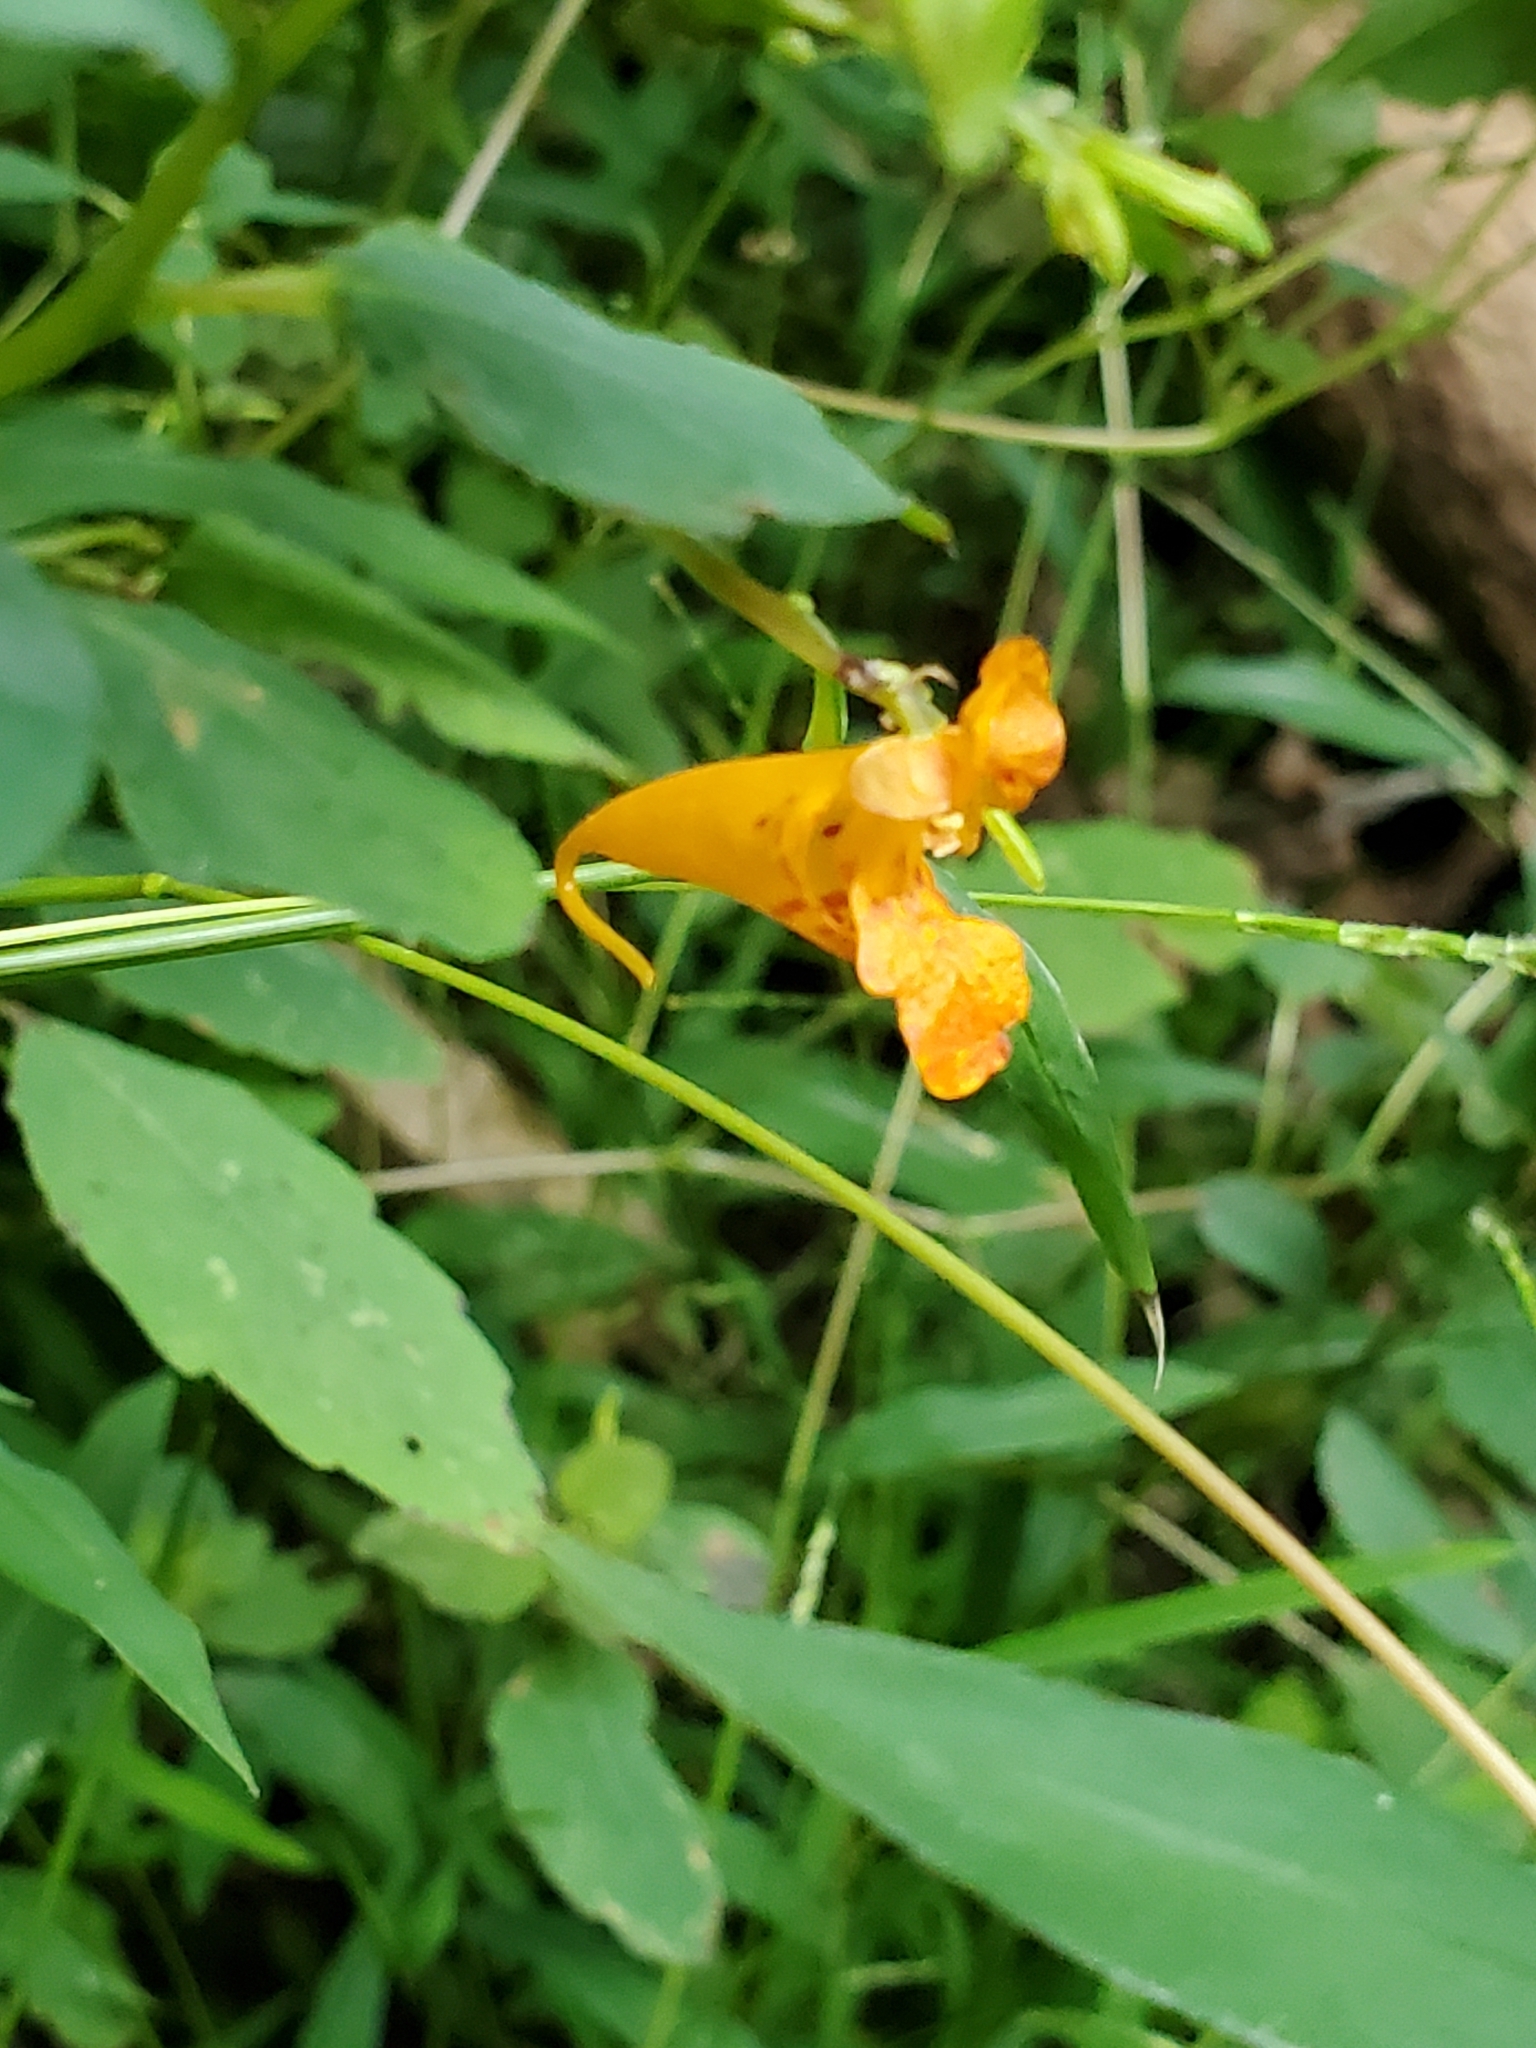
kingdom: Plantae
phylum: Tracheophyta
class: Magnoliopsida
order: Ericales
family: Balsaminaceae
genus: Impatiens
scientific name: Impatiens capensis
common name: Orange balsam
